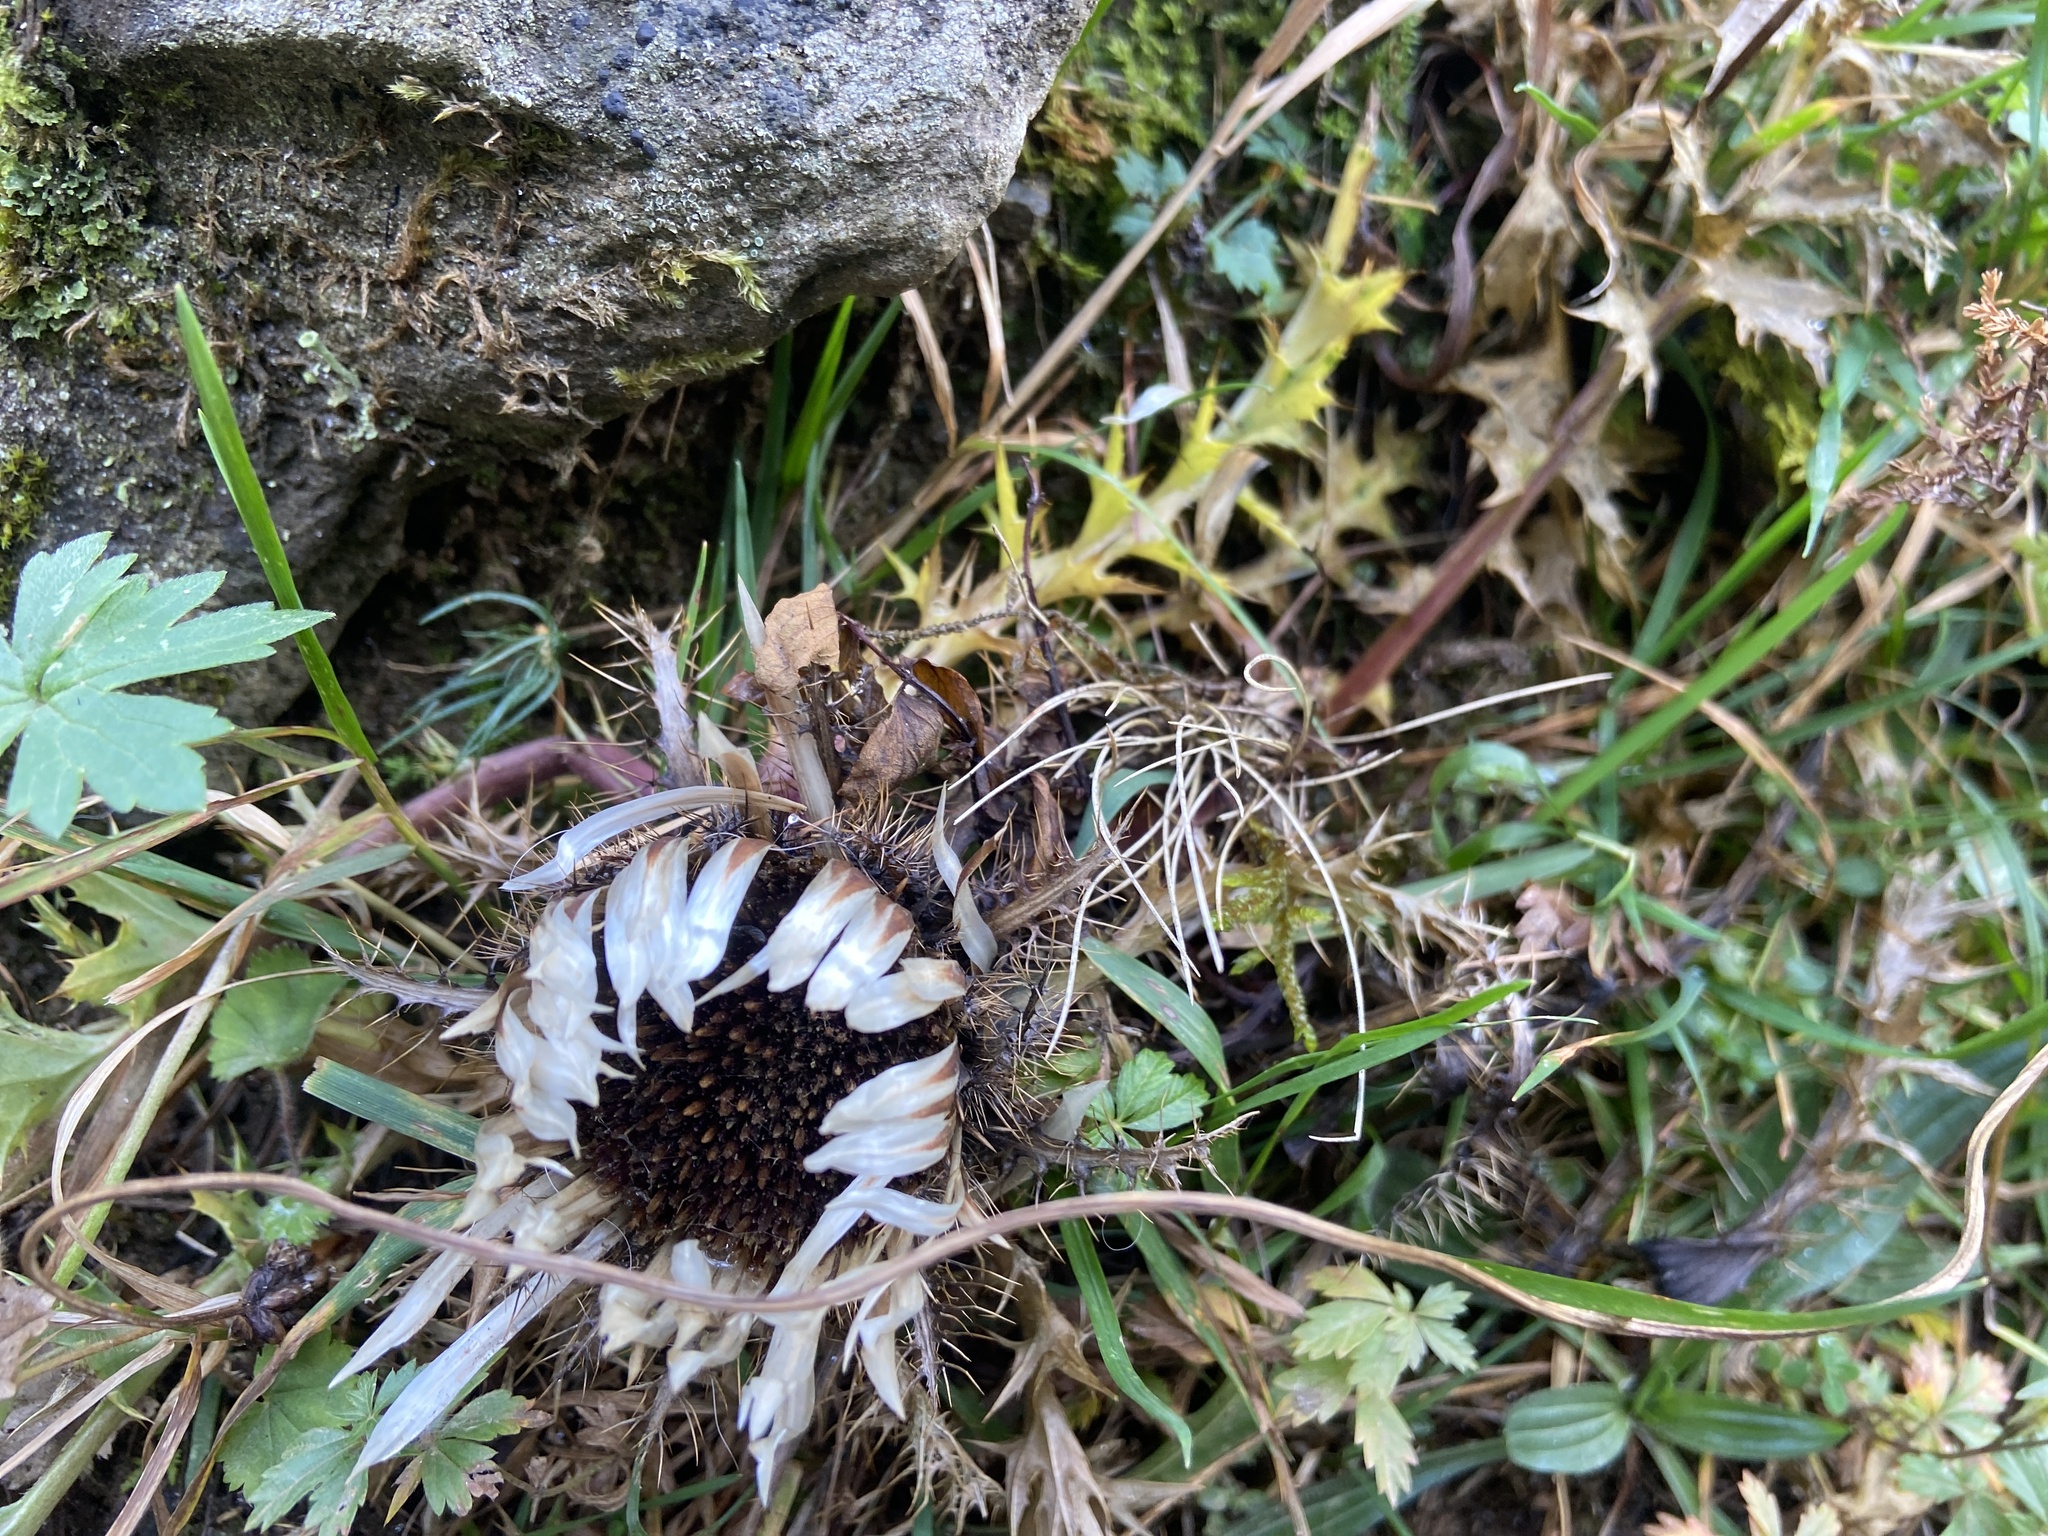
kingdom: Plantae
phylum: Tracheophyta
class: Magnoliopsida
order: Asterales
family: Asteraceae
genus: Carlina
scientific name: Carlina acaulis
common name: Stemless carline thistle
